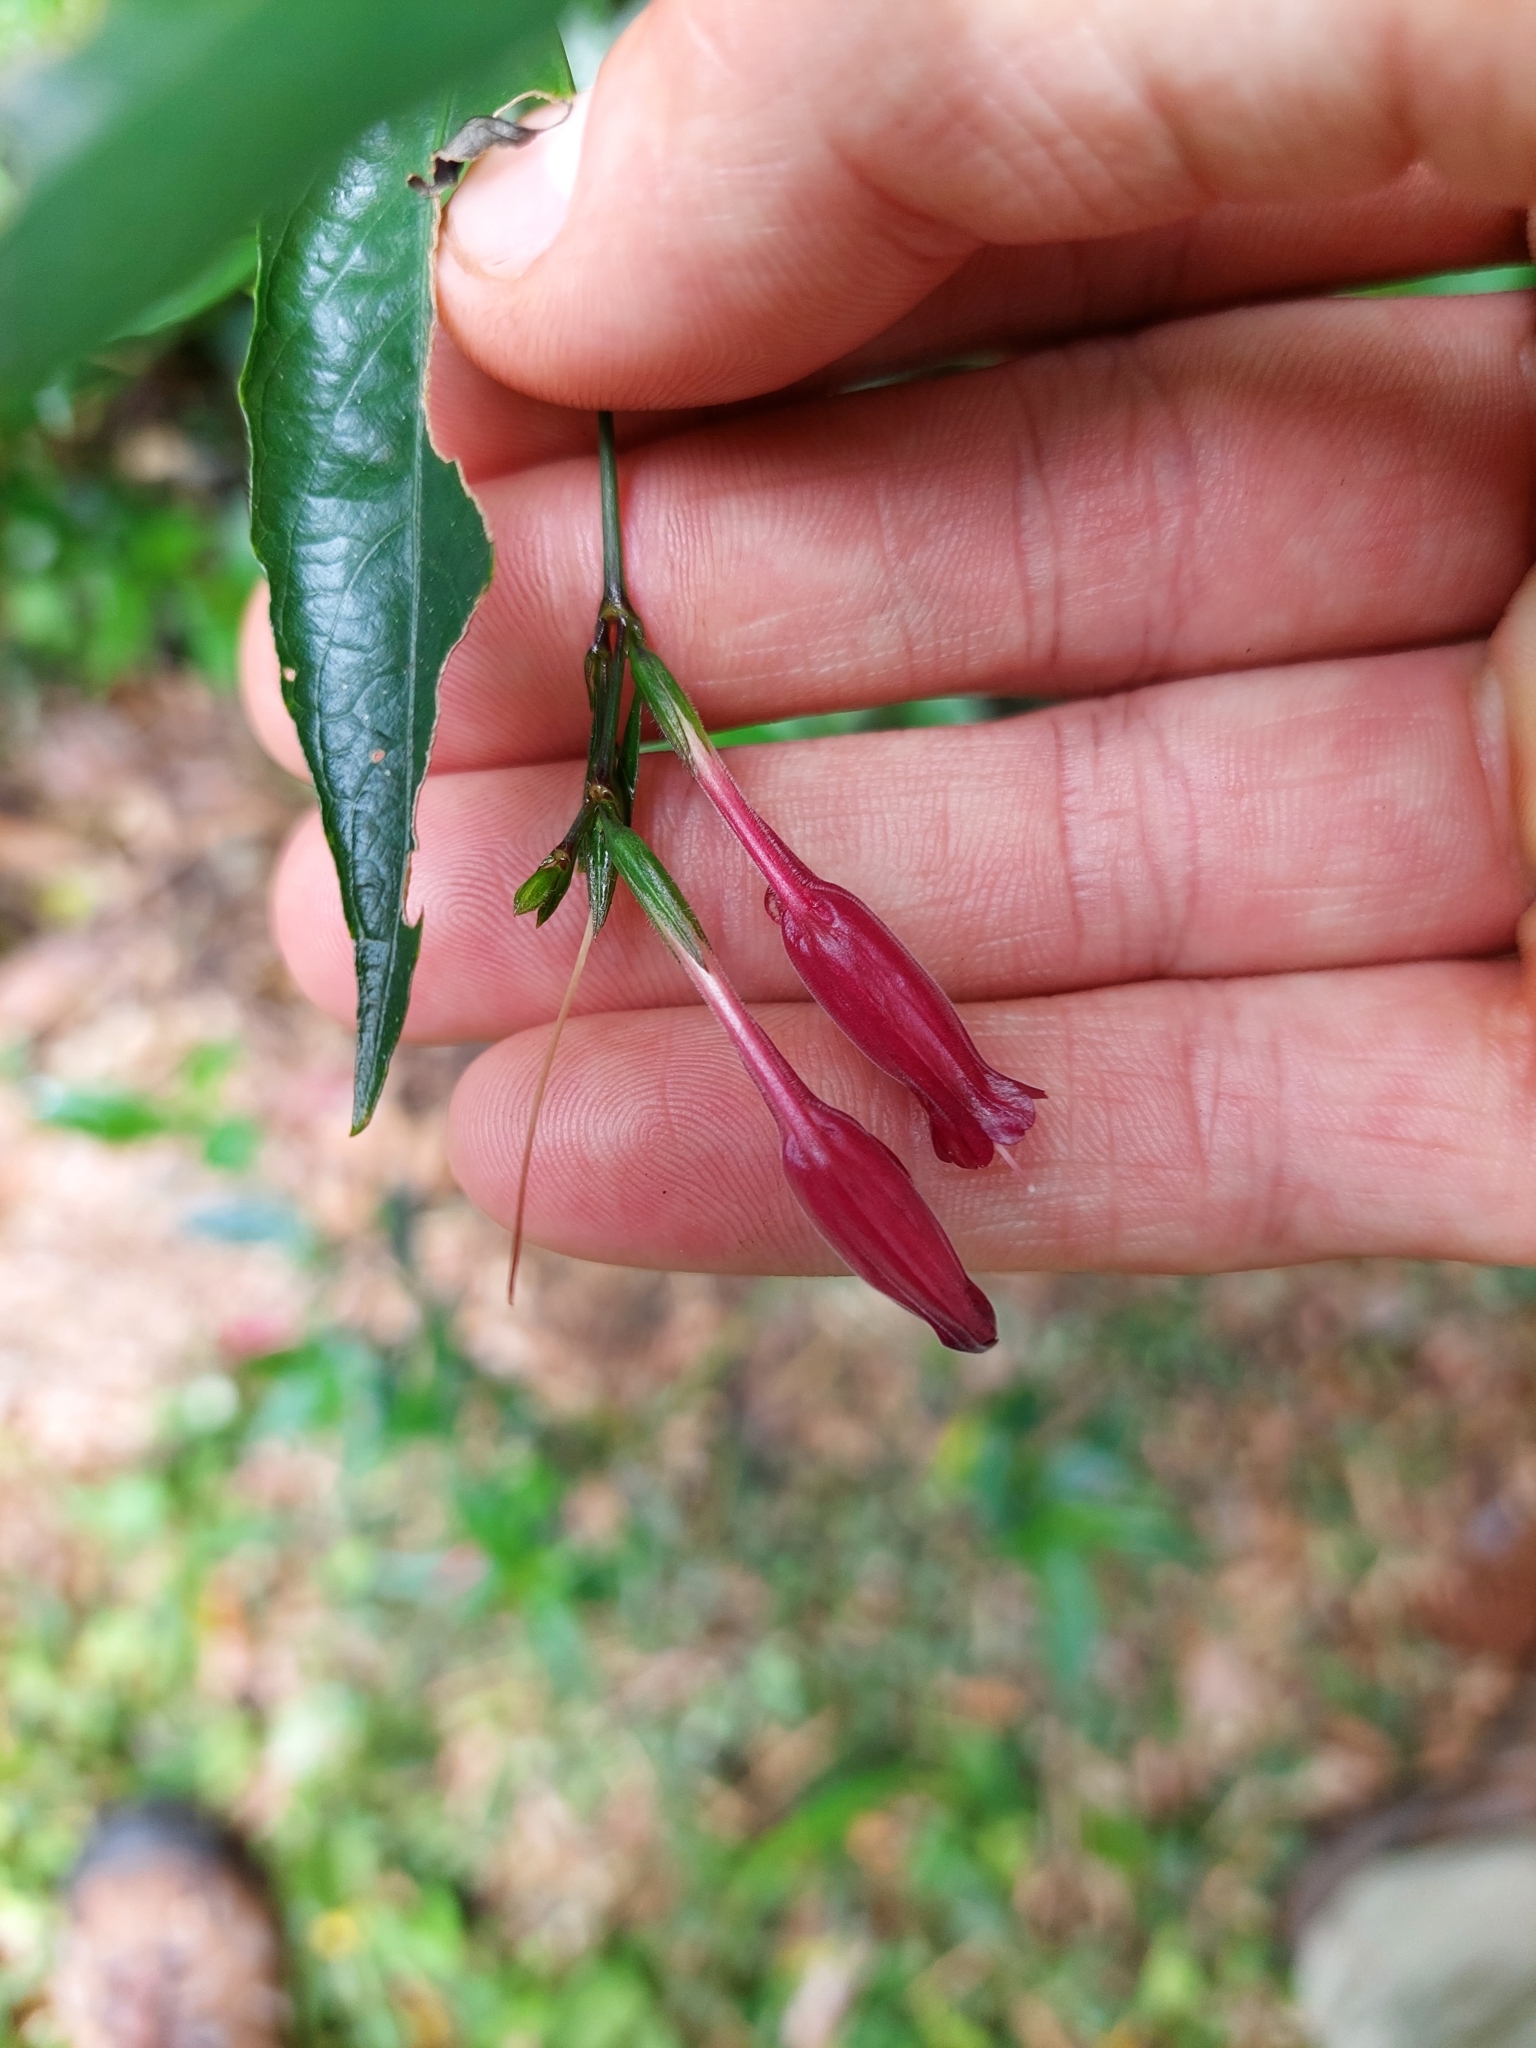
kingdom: Plantae
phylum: Tracheophyta
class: Magnoliopsida
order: Lamiales
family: Acanthaceae
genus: Ruellia
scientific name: Ruellia angustiflora
